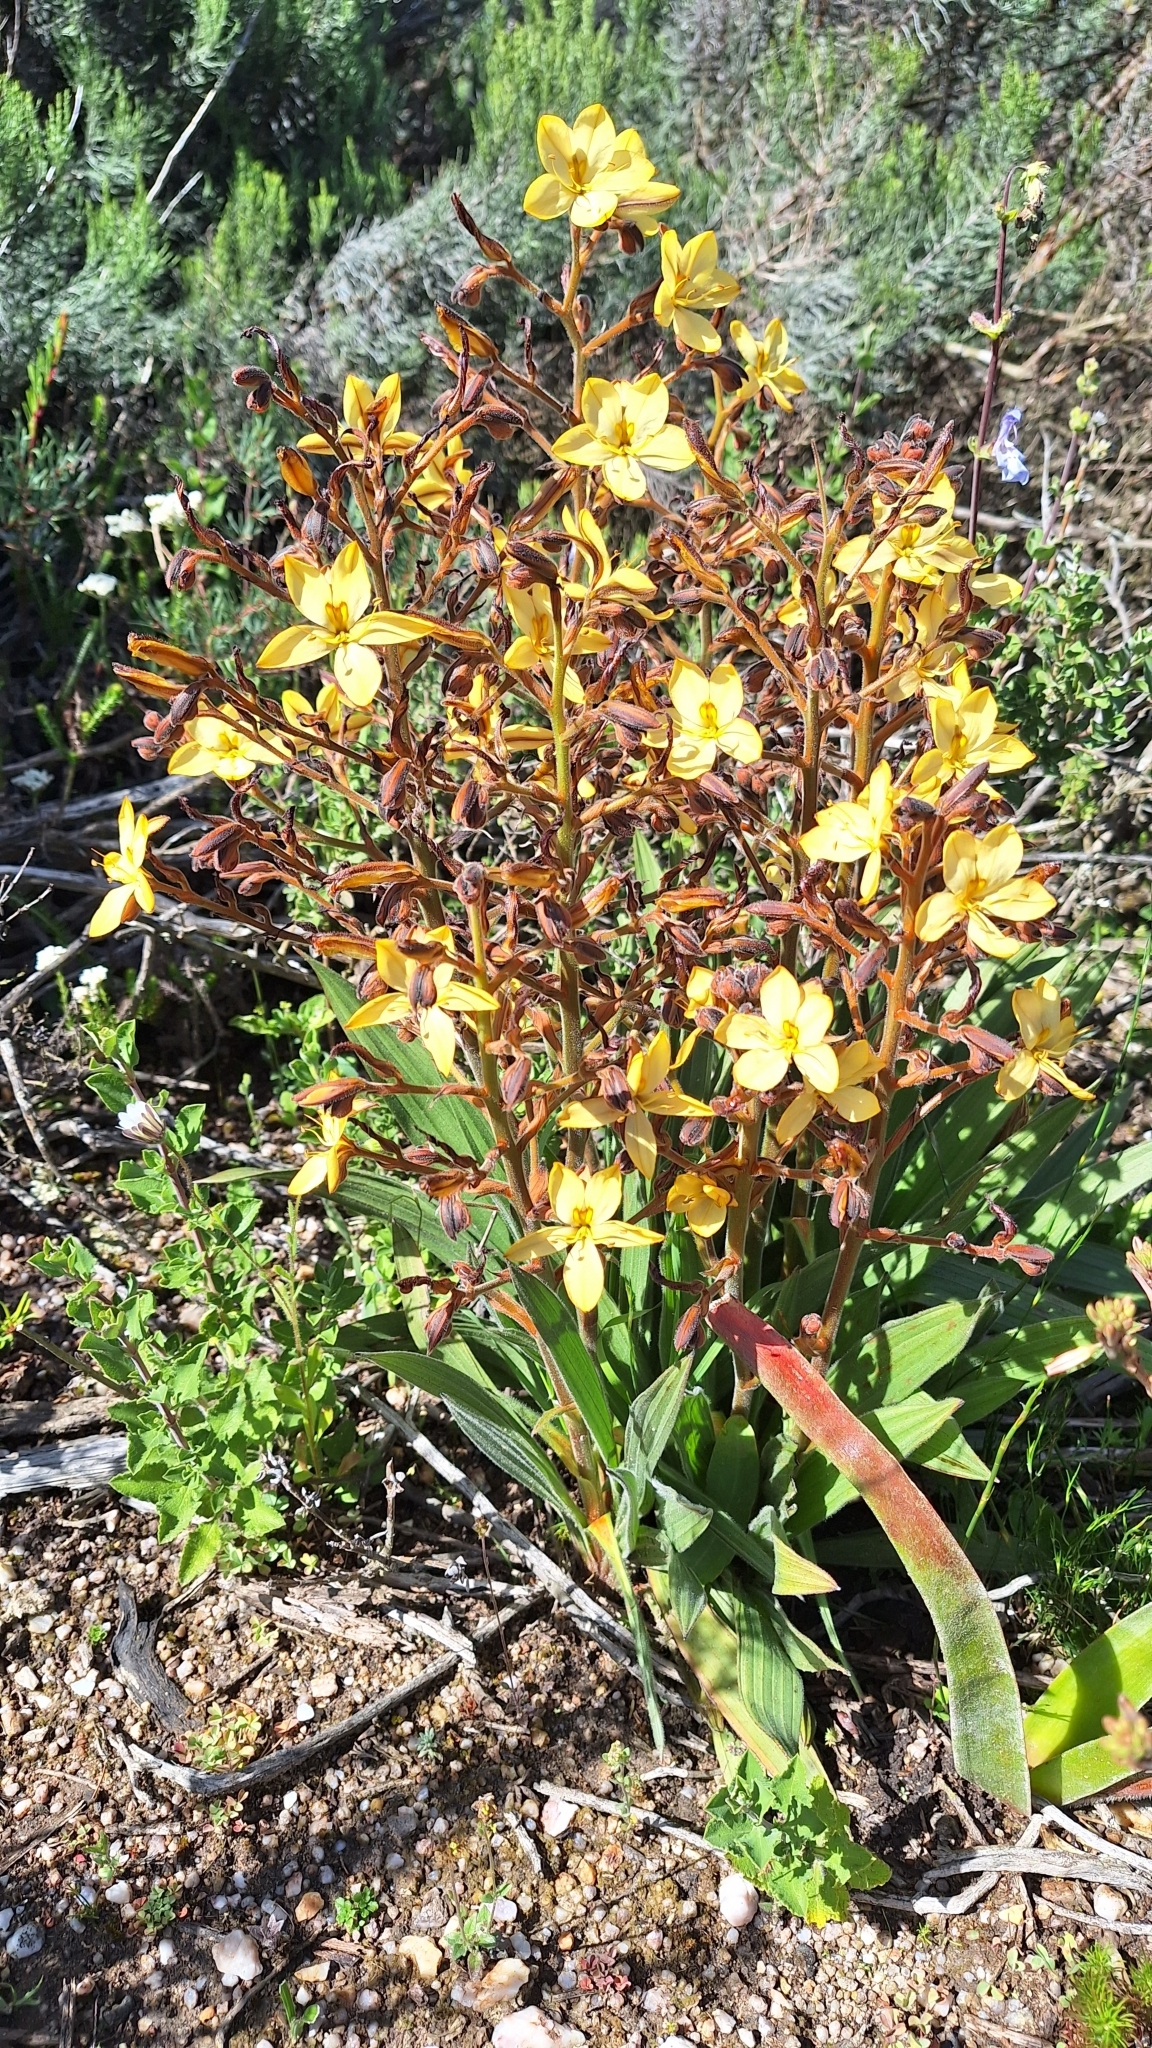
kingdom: Plantae
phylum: Tracheophyta
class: Liliopsida
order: Commelinales
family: Haemodoraceae
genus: Wachendorfia
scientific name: Wachendorfia paniculata
